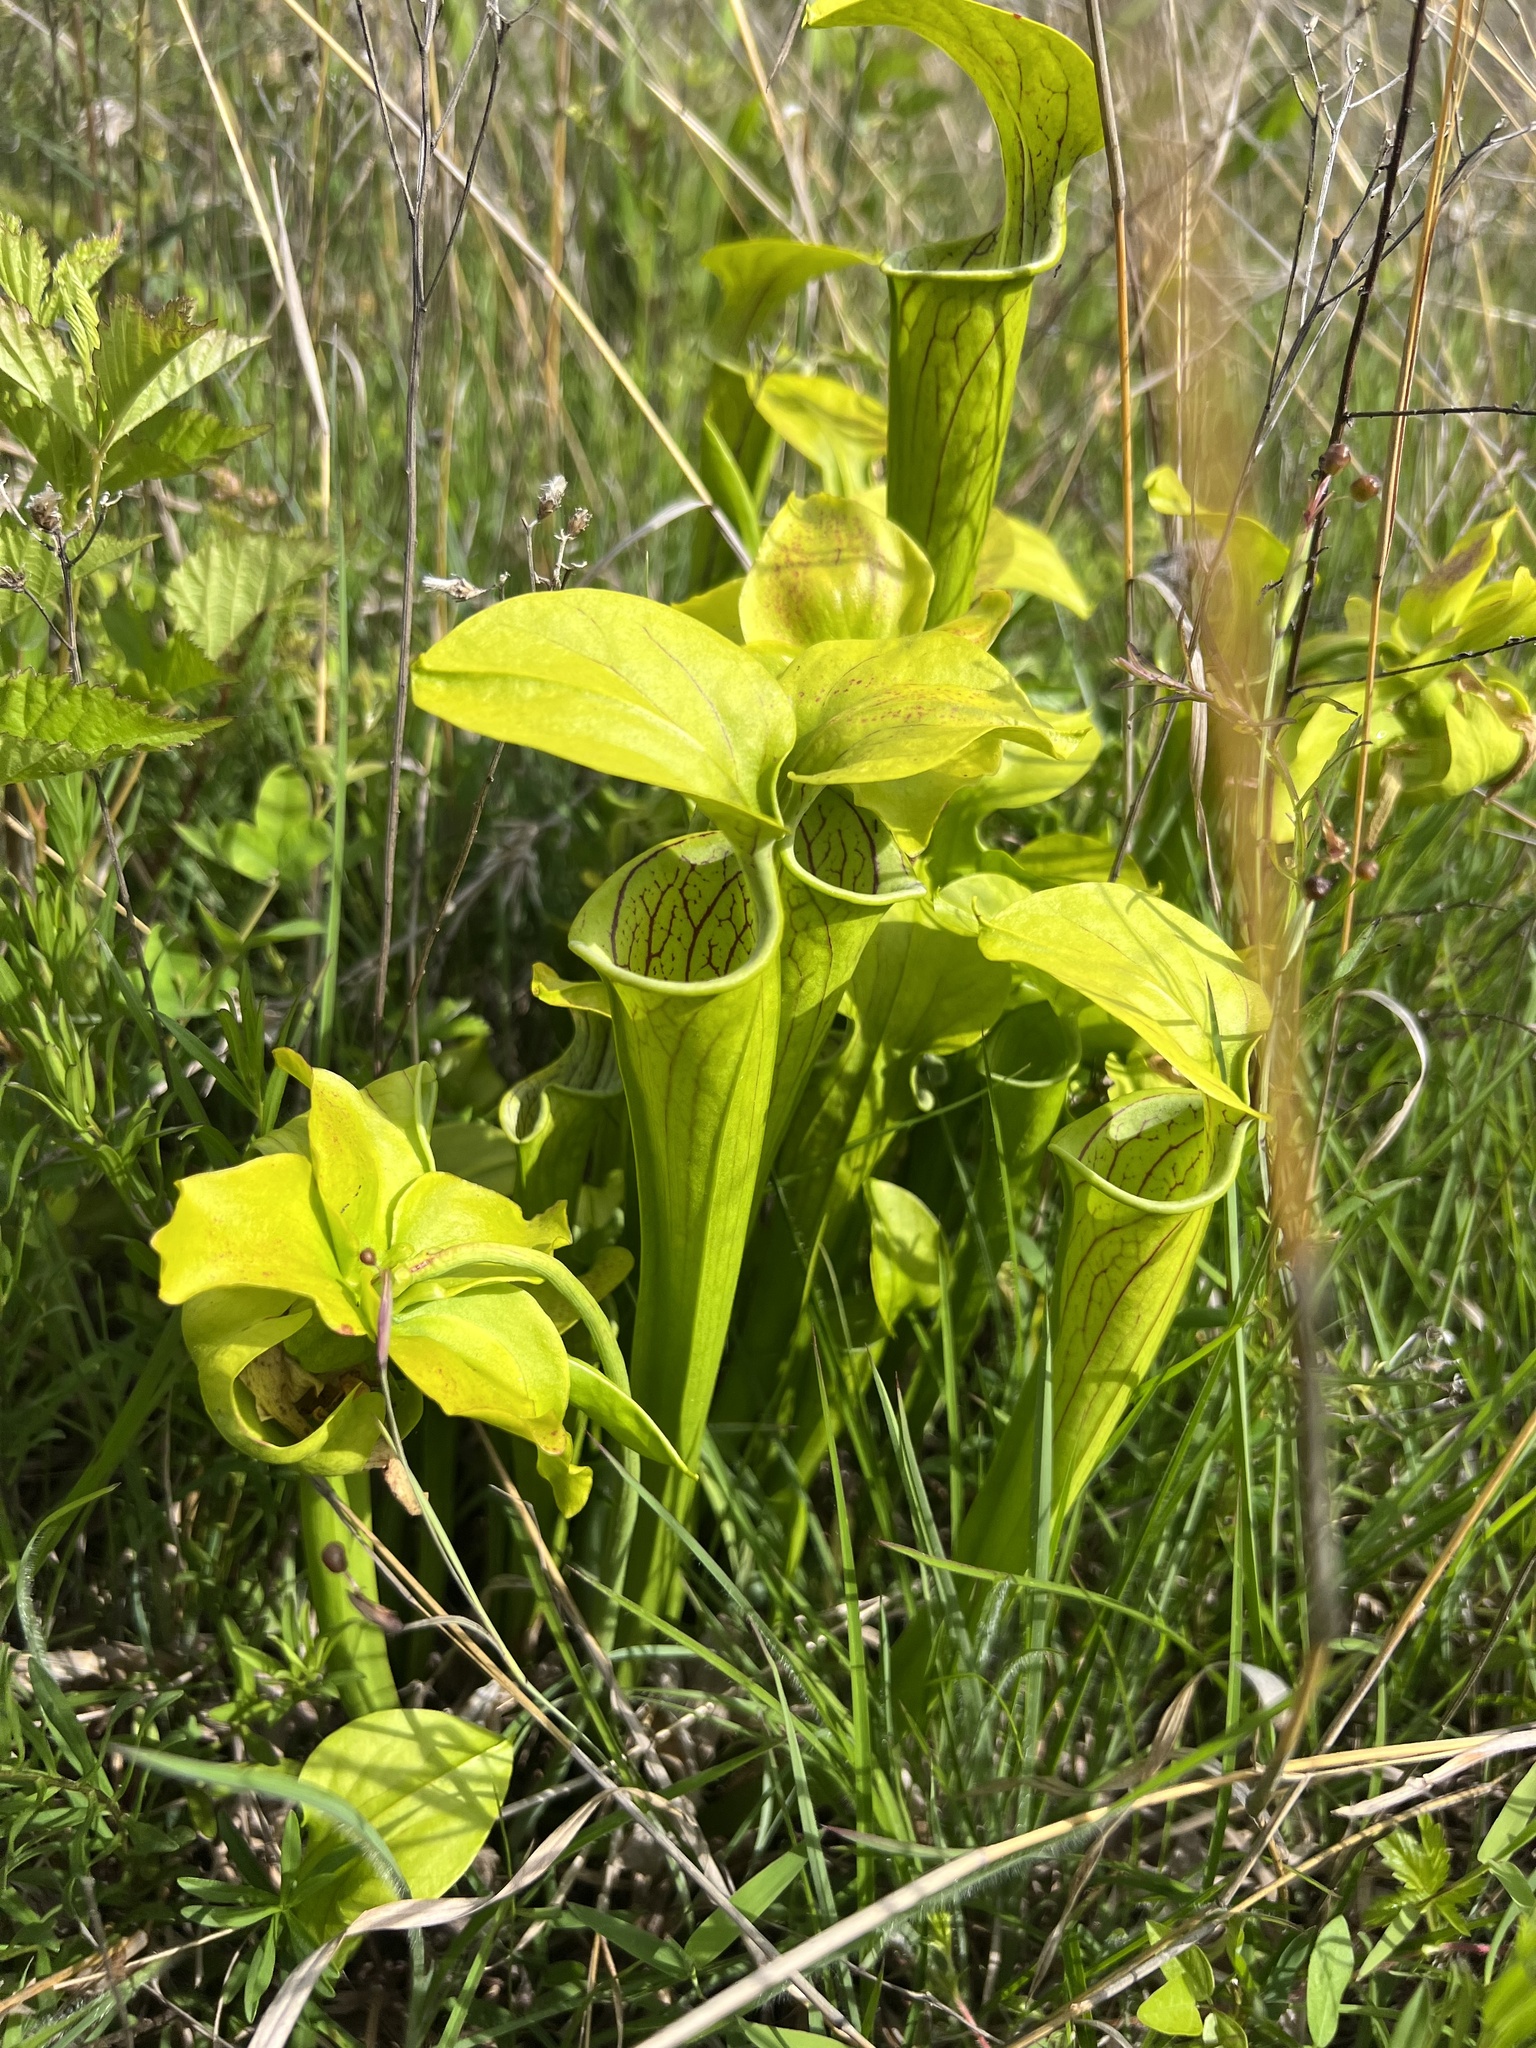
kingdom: Plantae
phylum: Tracheophyta
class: Magnoliopsida
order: Ericales
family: Sarraceniaceae
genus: Sarracenia
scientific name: Sarracenia oreophila
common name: Green pitcherplant
